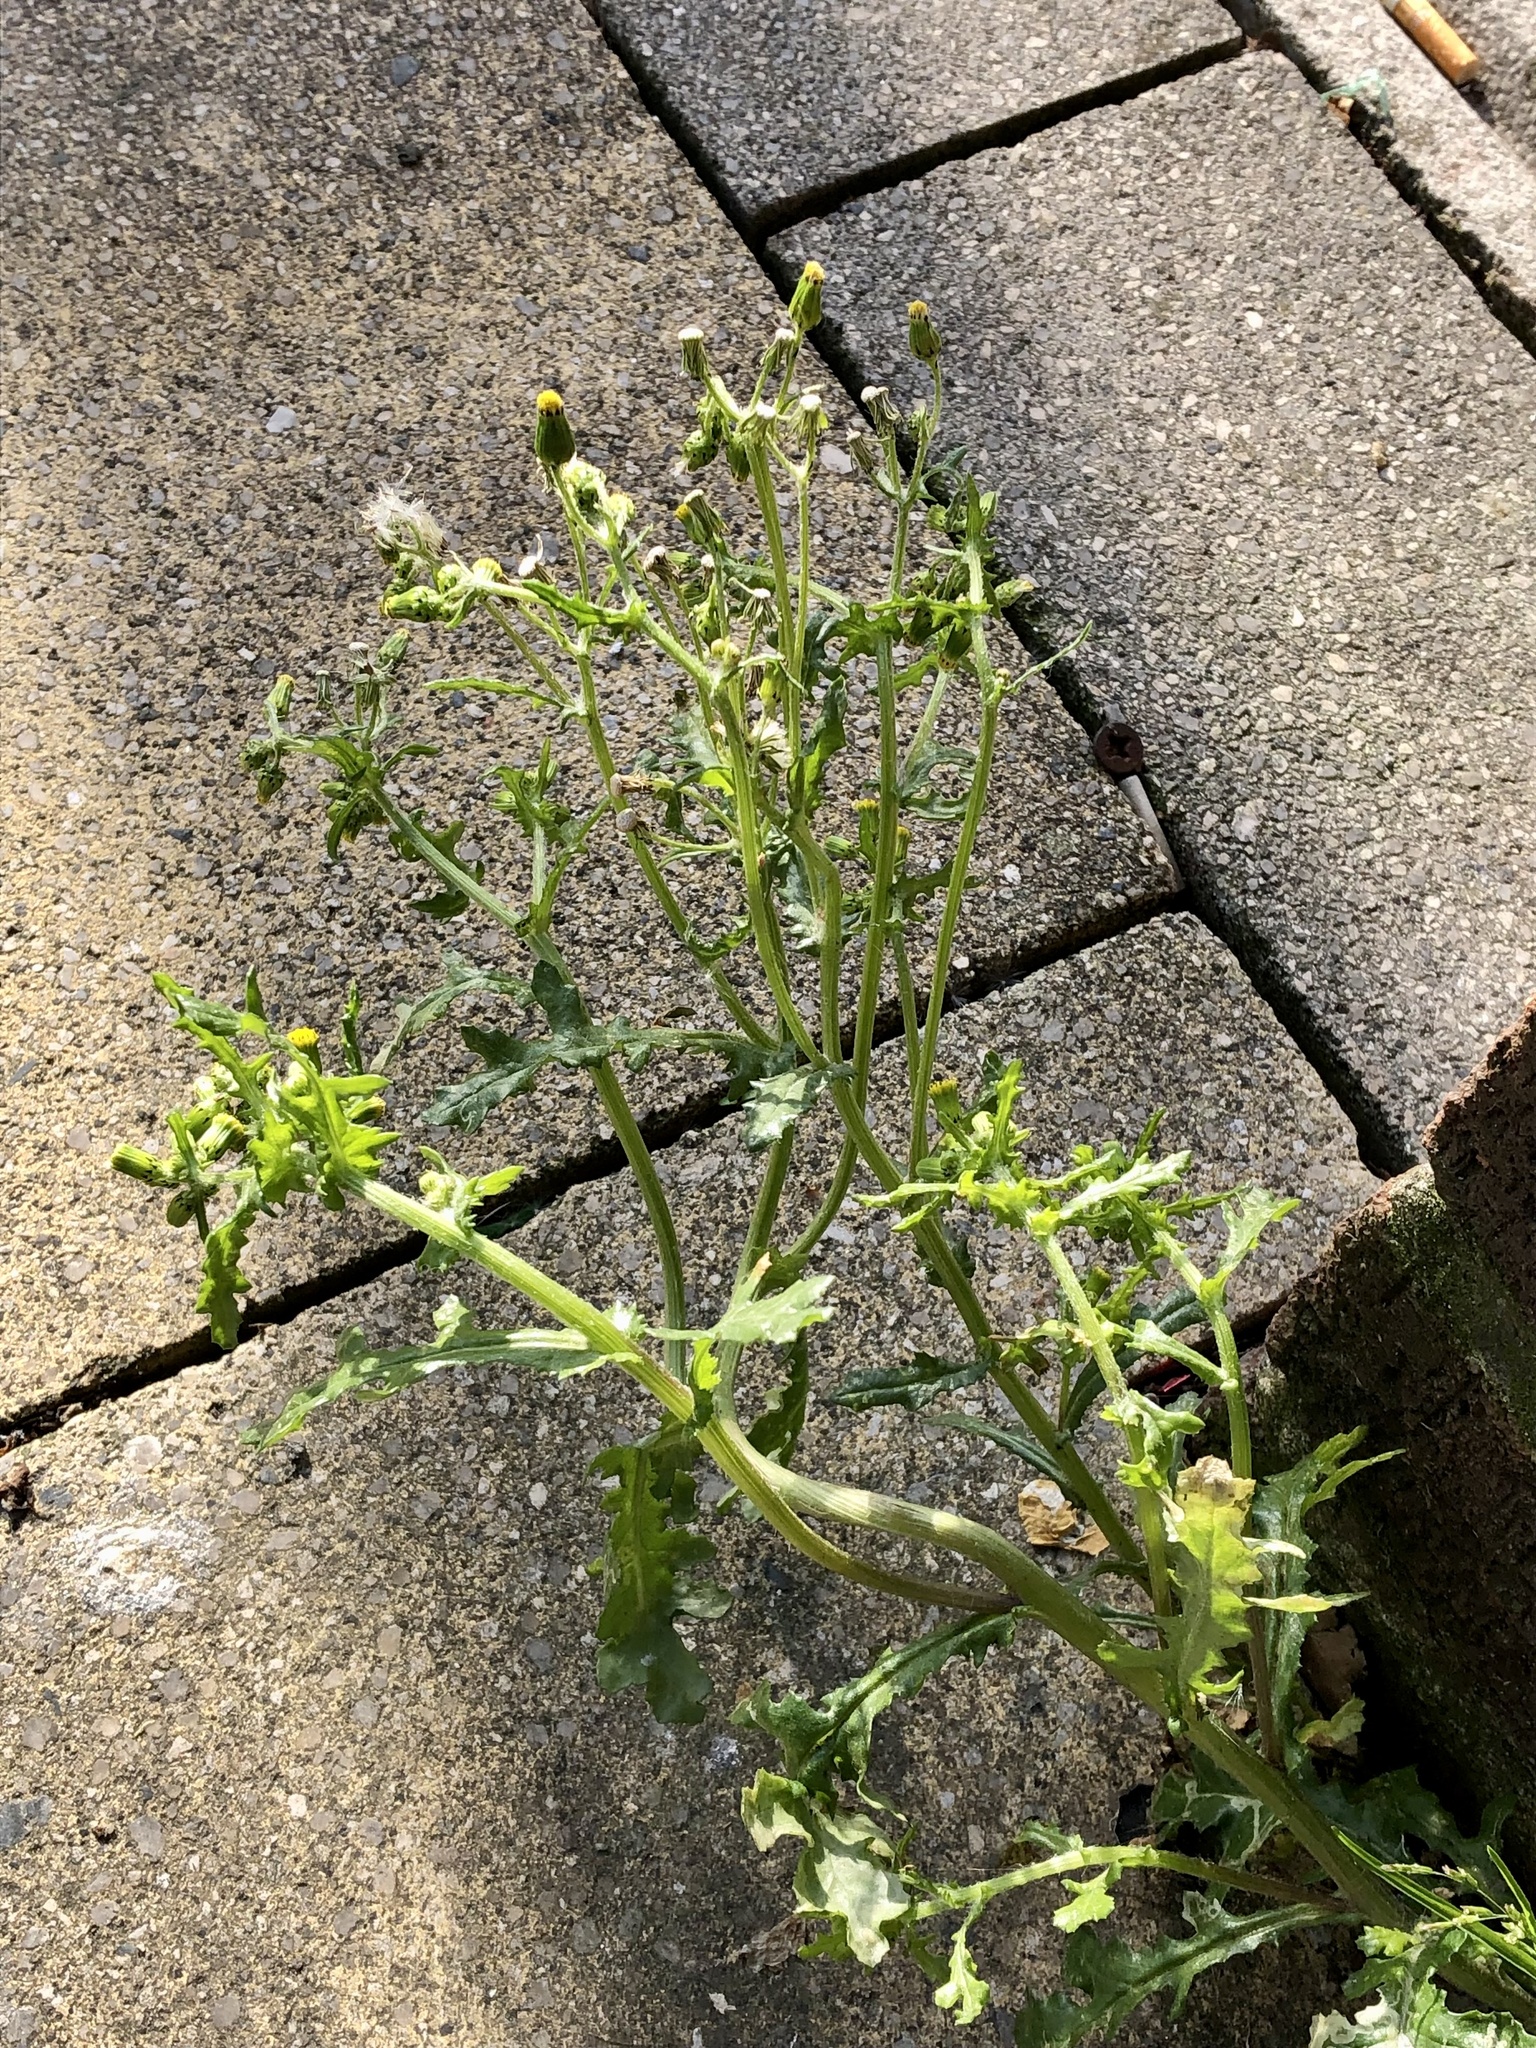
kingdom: Plantae
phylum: Tracheophyta
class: Magnoliopsida
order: Asterales
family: Asteraceae
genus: Senecio
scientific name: Senecio vulgaris
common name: Old-man-in-the-spring
